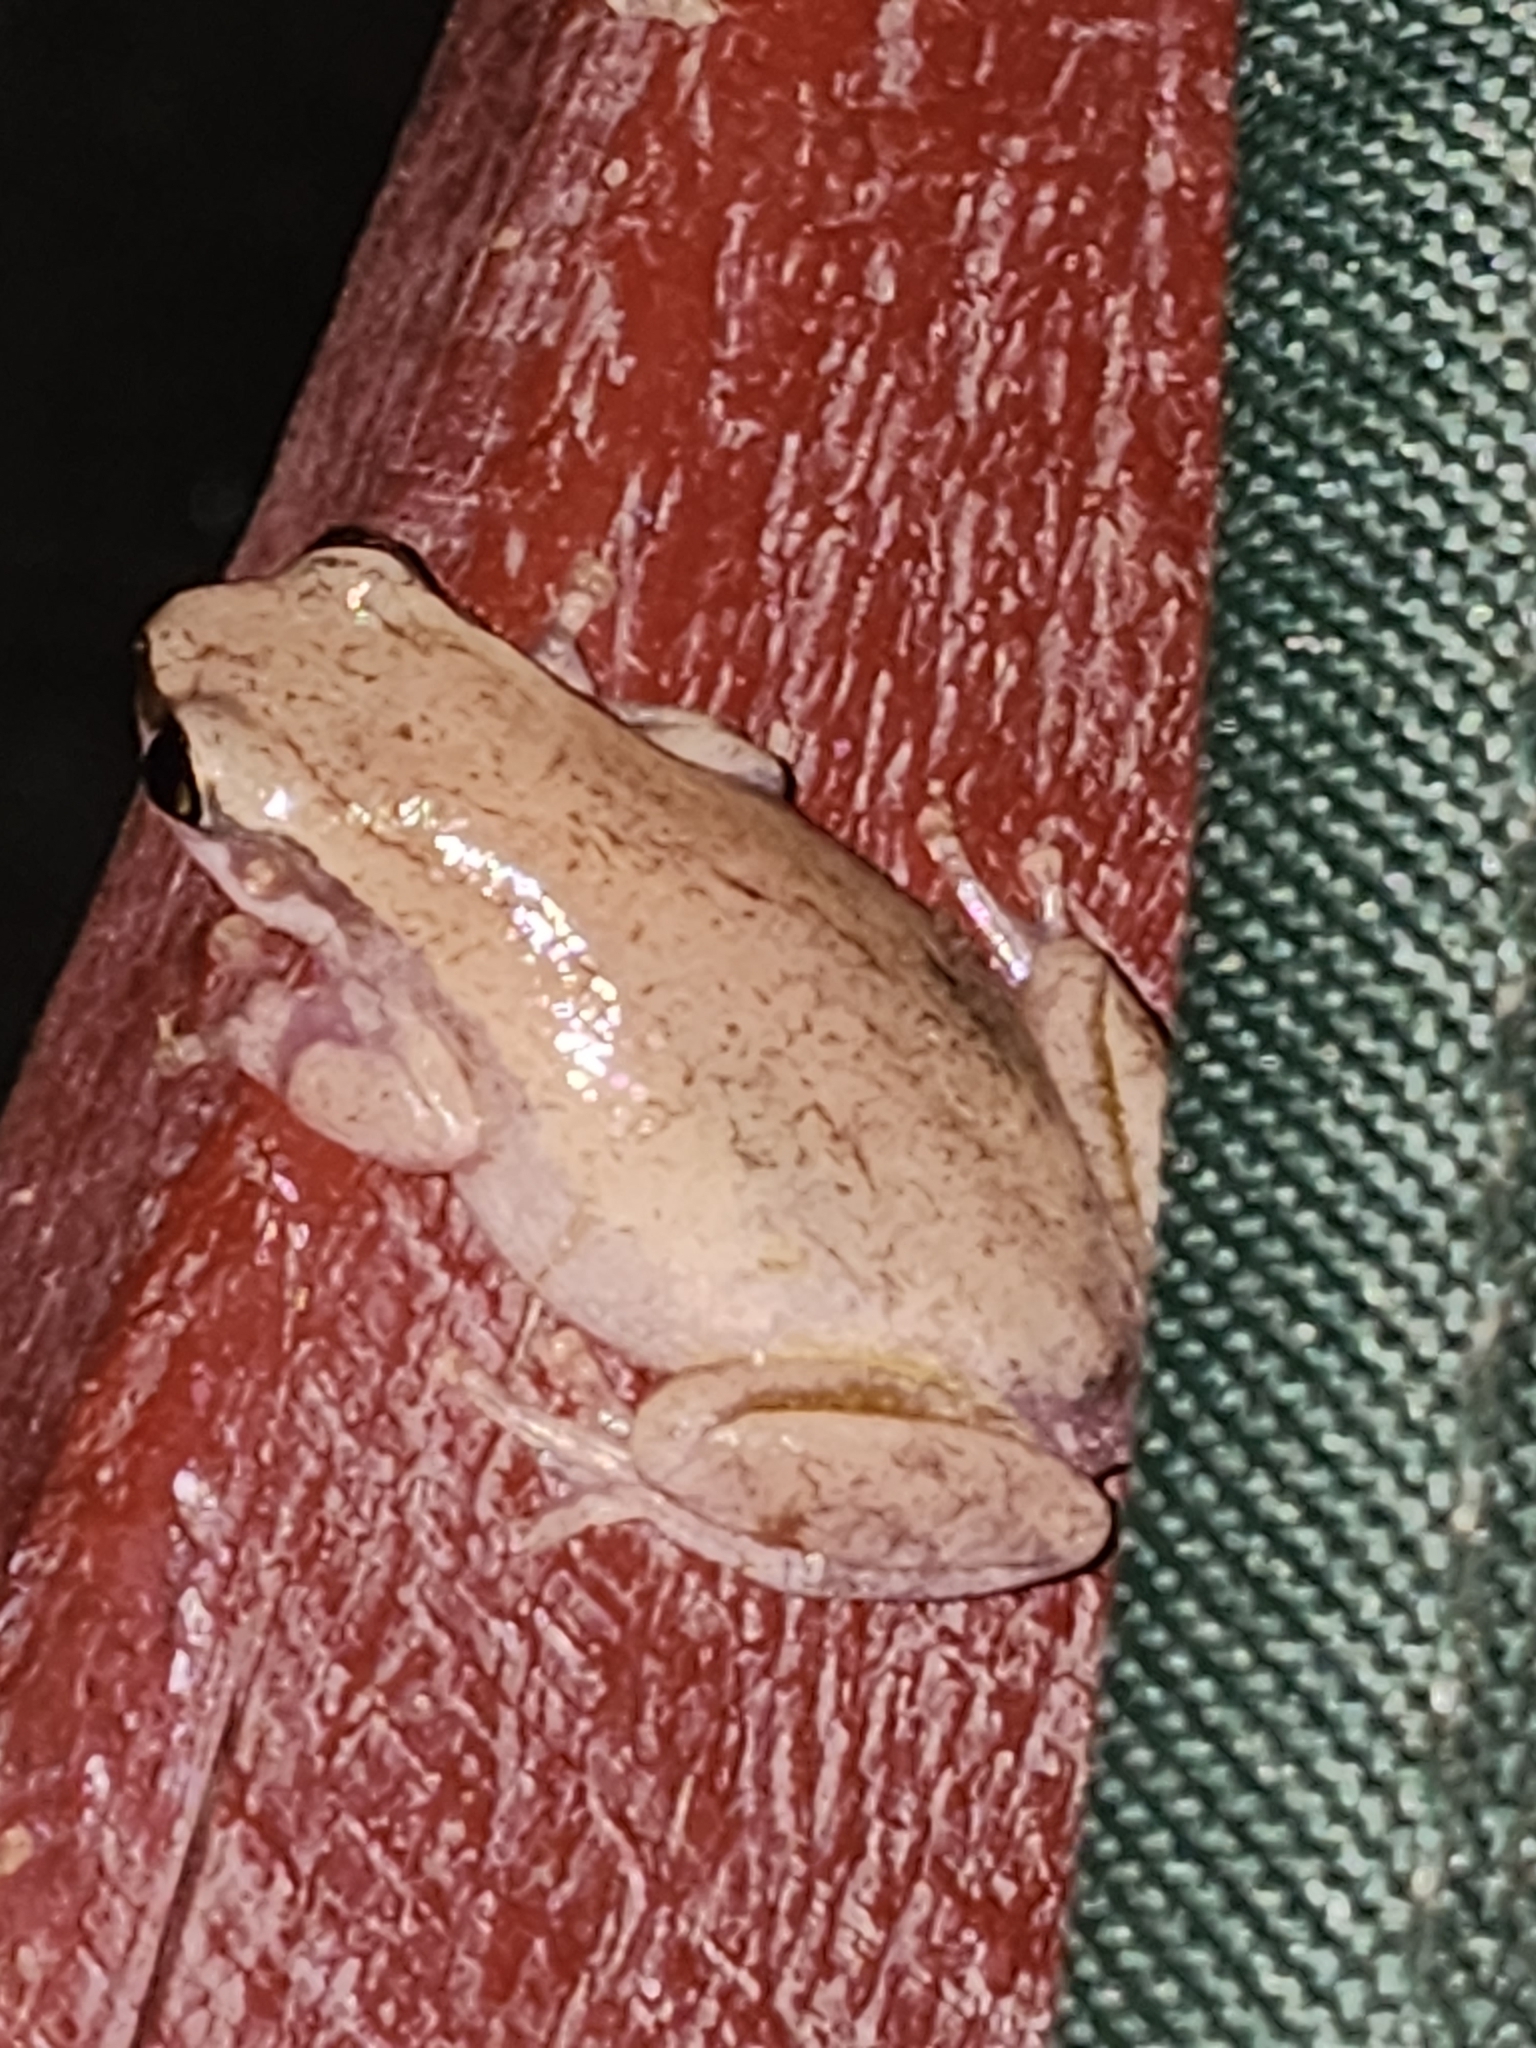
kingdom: Animalia
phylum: Chordata
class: Amphibia
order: Anura
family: Pelodryadidae
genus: Litoria
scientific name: Litoria rubella
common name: Desert tree frog
